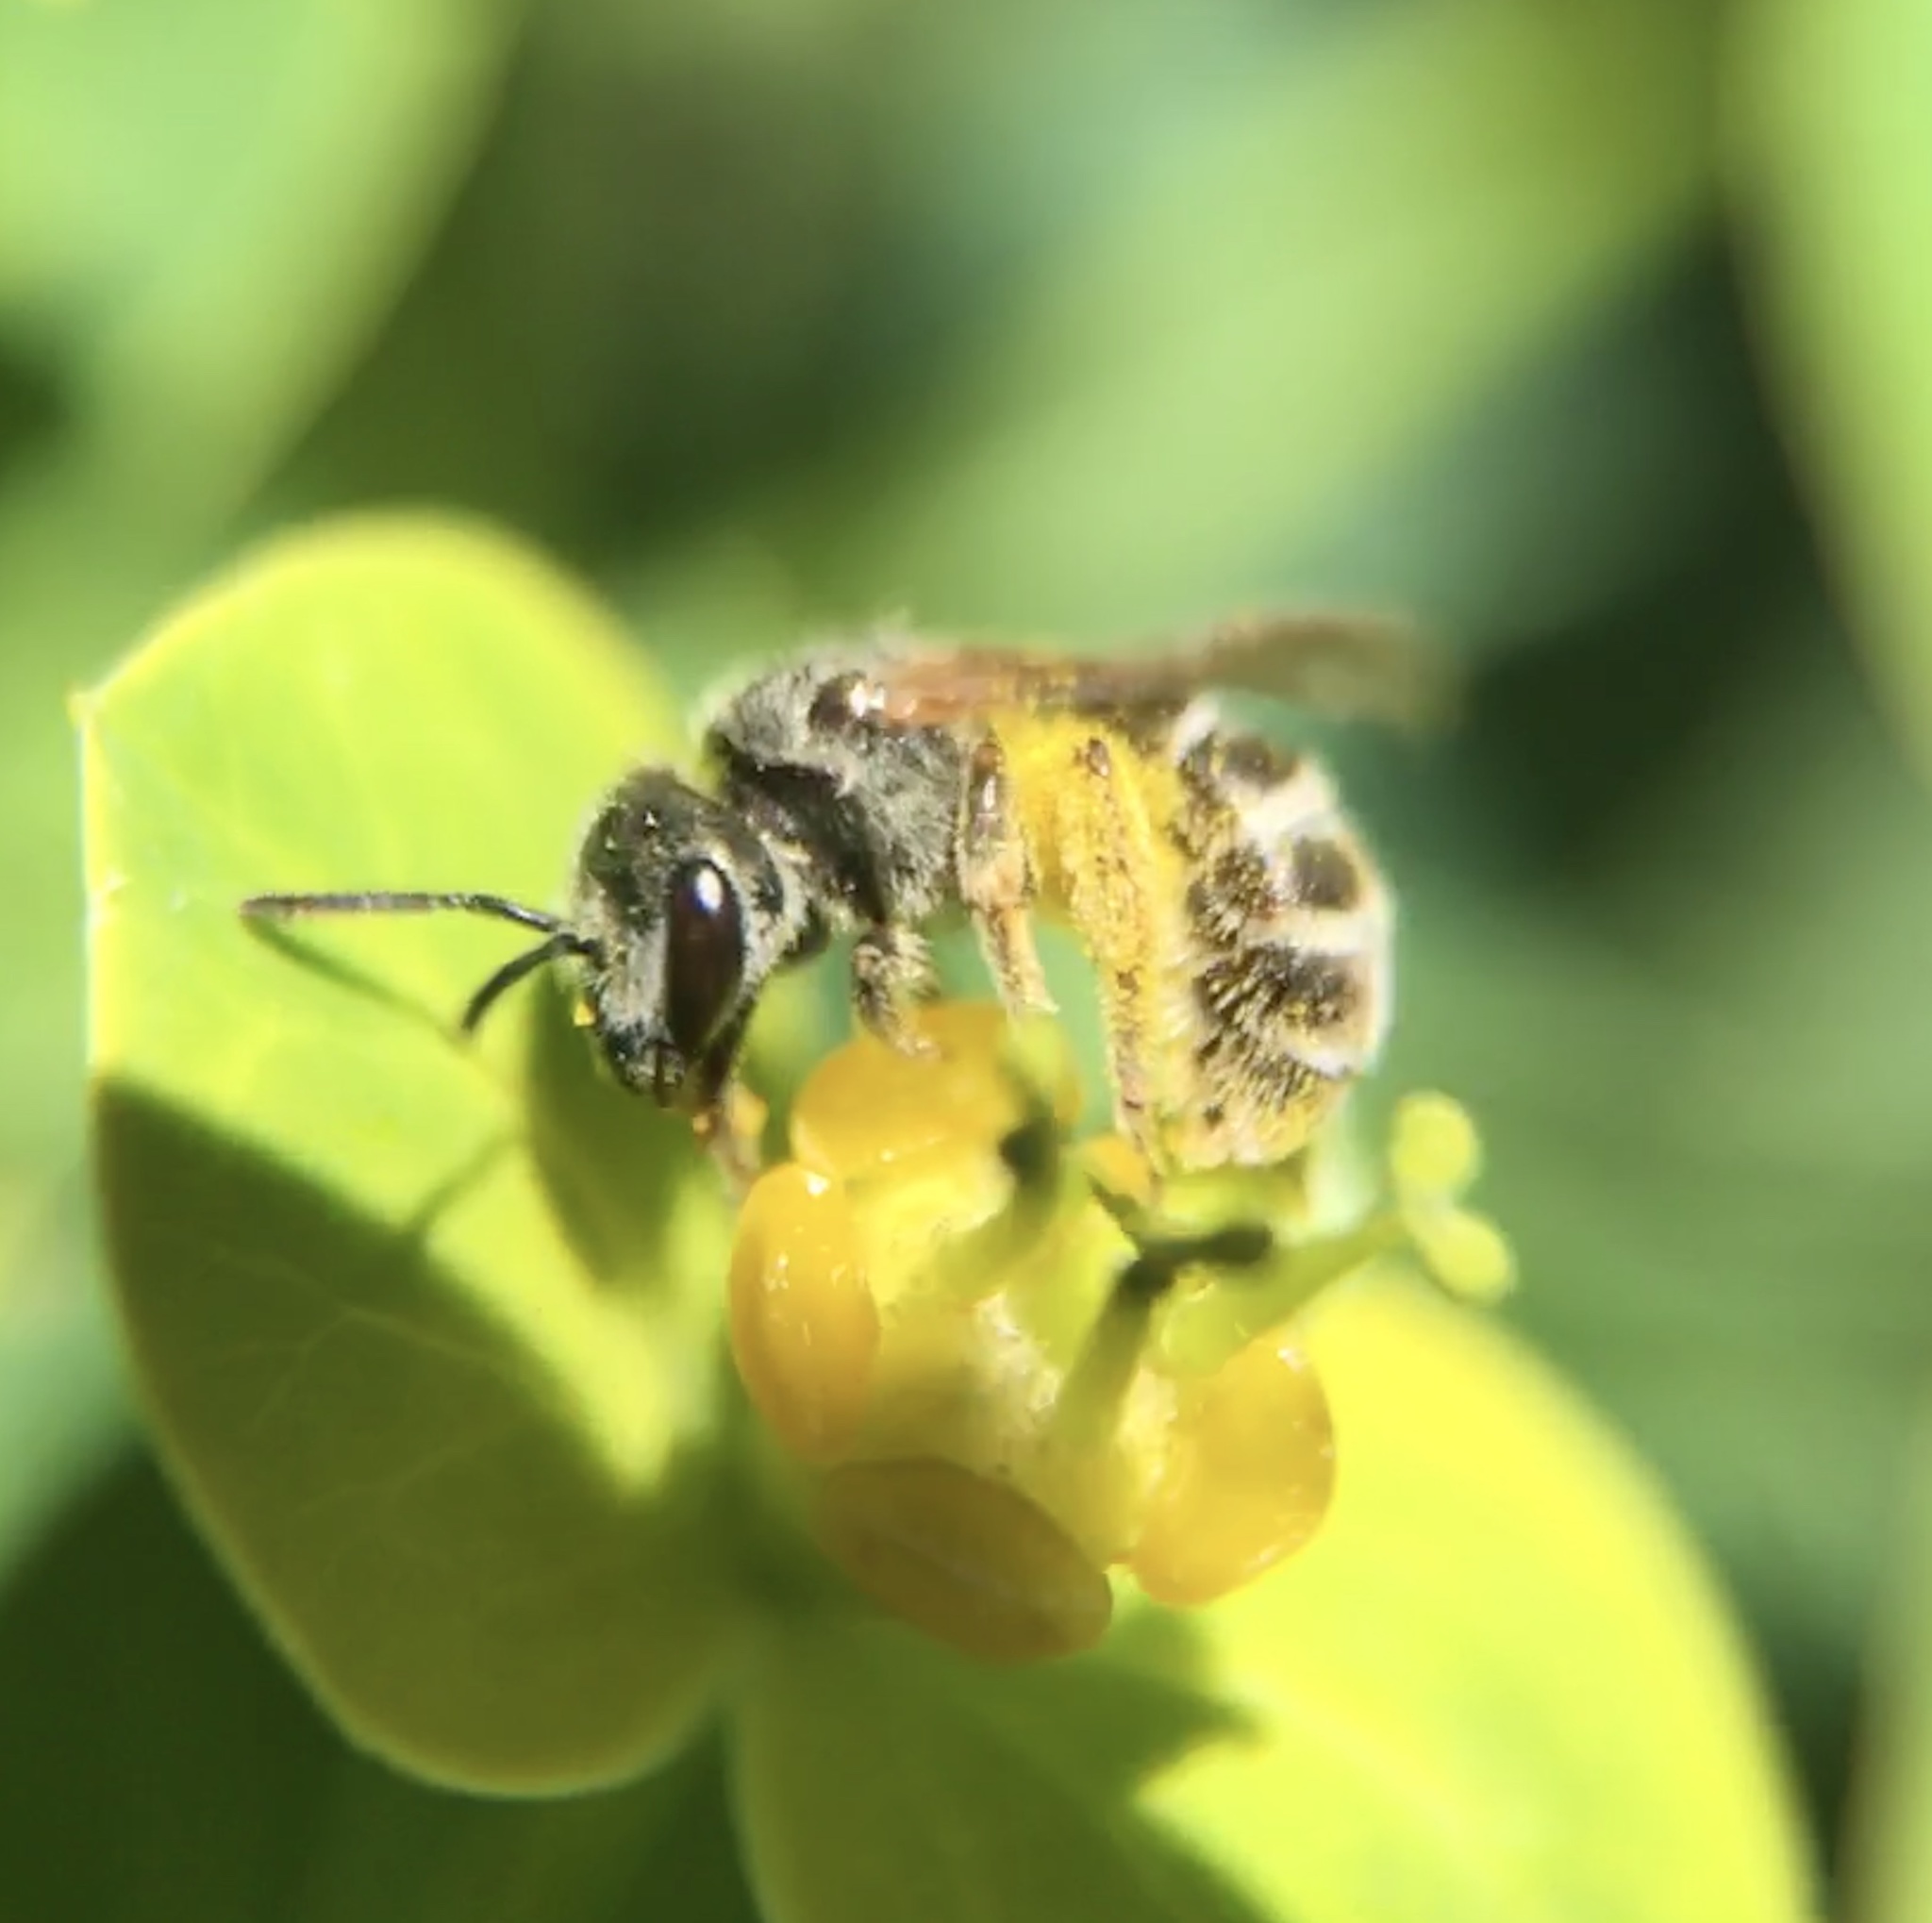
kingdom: Animalia
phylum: Arthropoda
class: Insecta
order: Hymenoptera
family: Halictidae
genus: Halictus
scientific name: Halictus tripartitus
